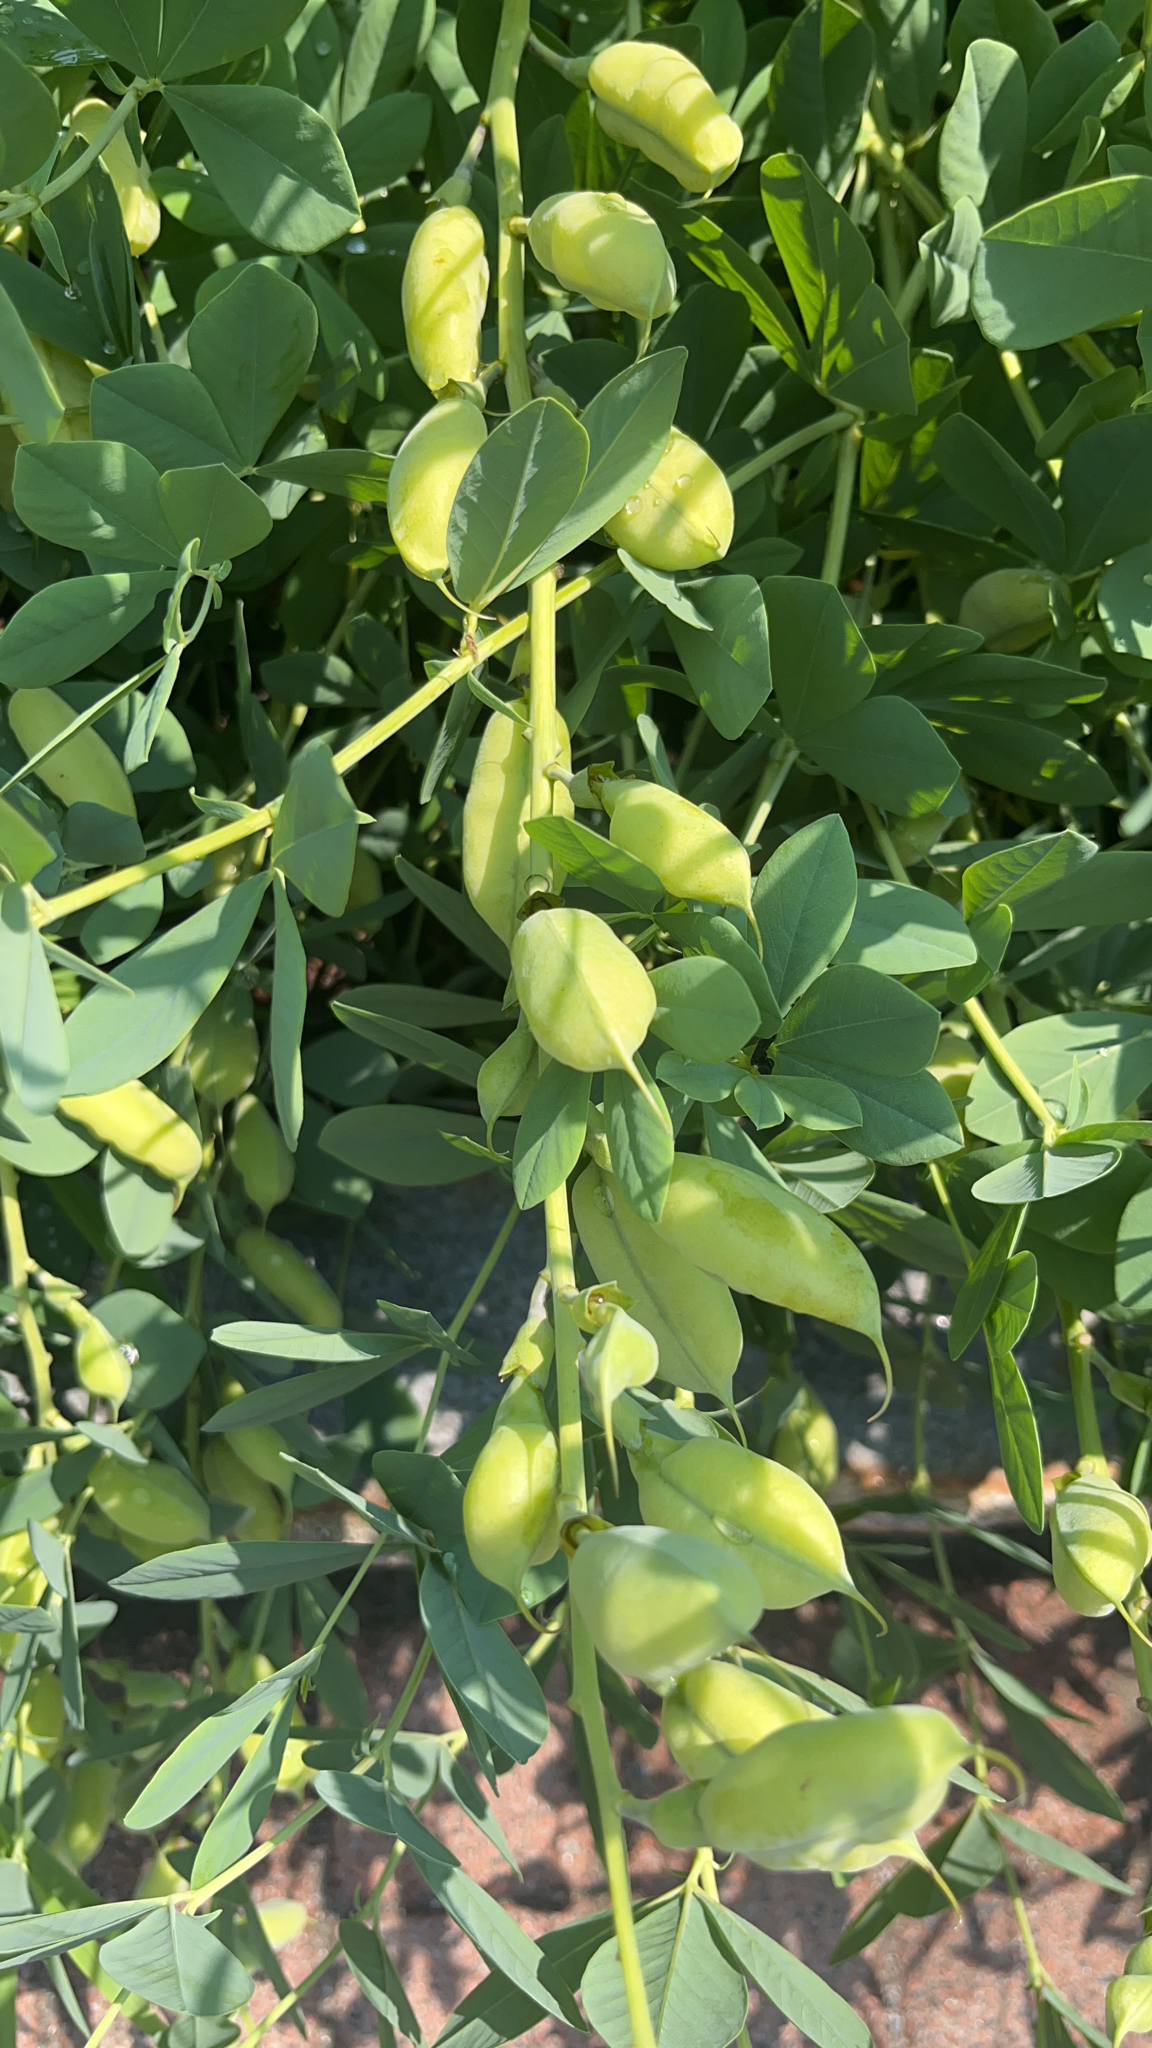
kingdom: Plantae
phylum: Tracheophyta
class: Magnoliopsida
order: Fabales
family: Fabaceae
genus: Baptisia
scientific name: Baptisia australis
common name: Blue false indigo
